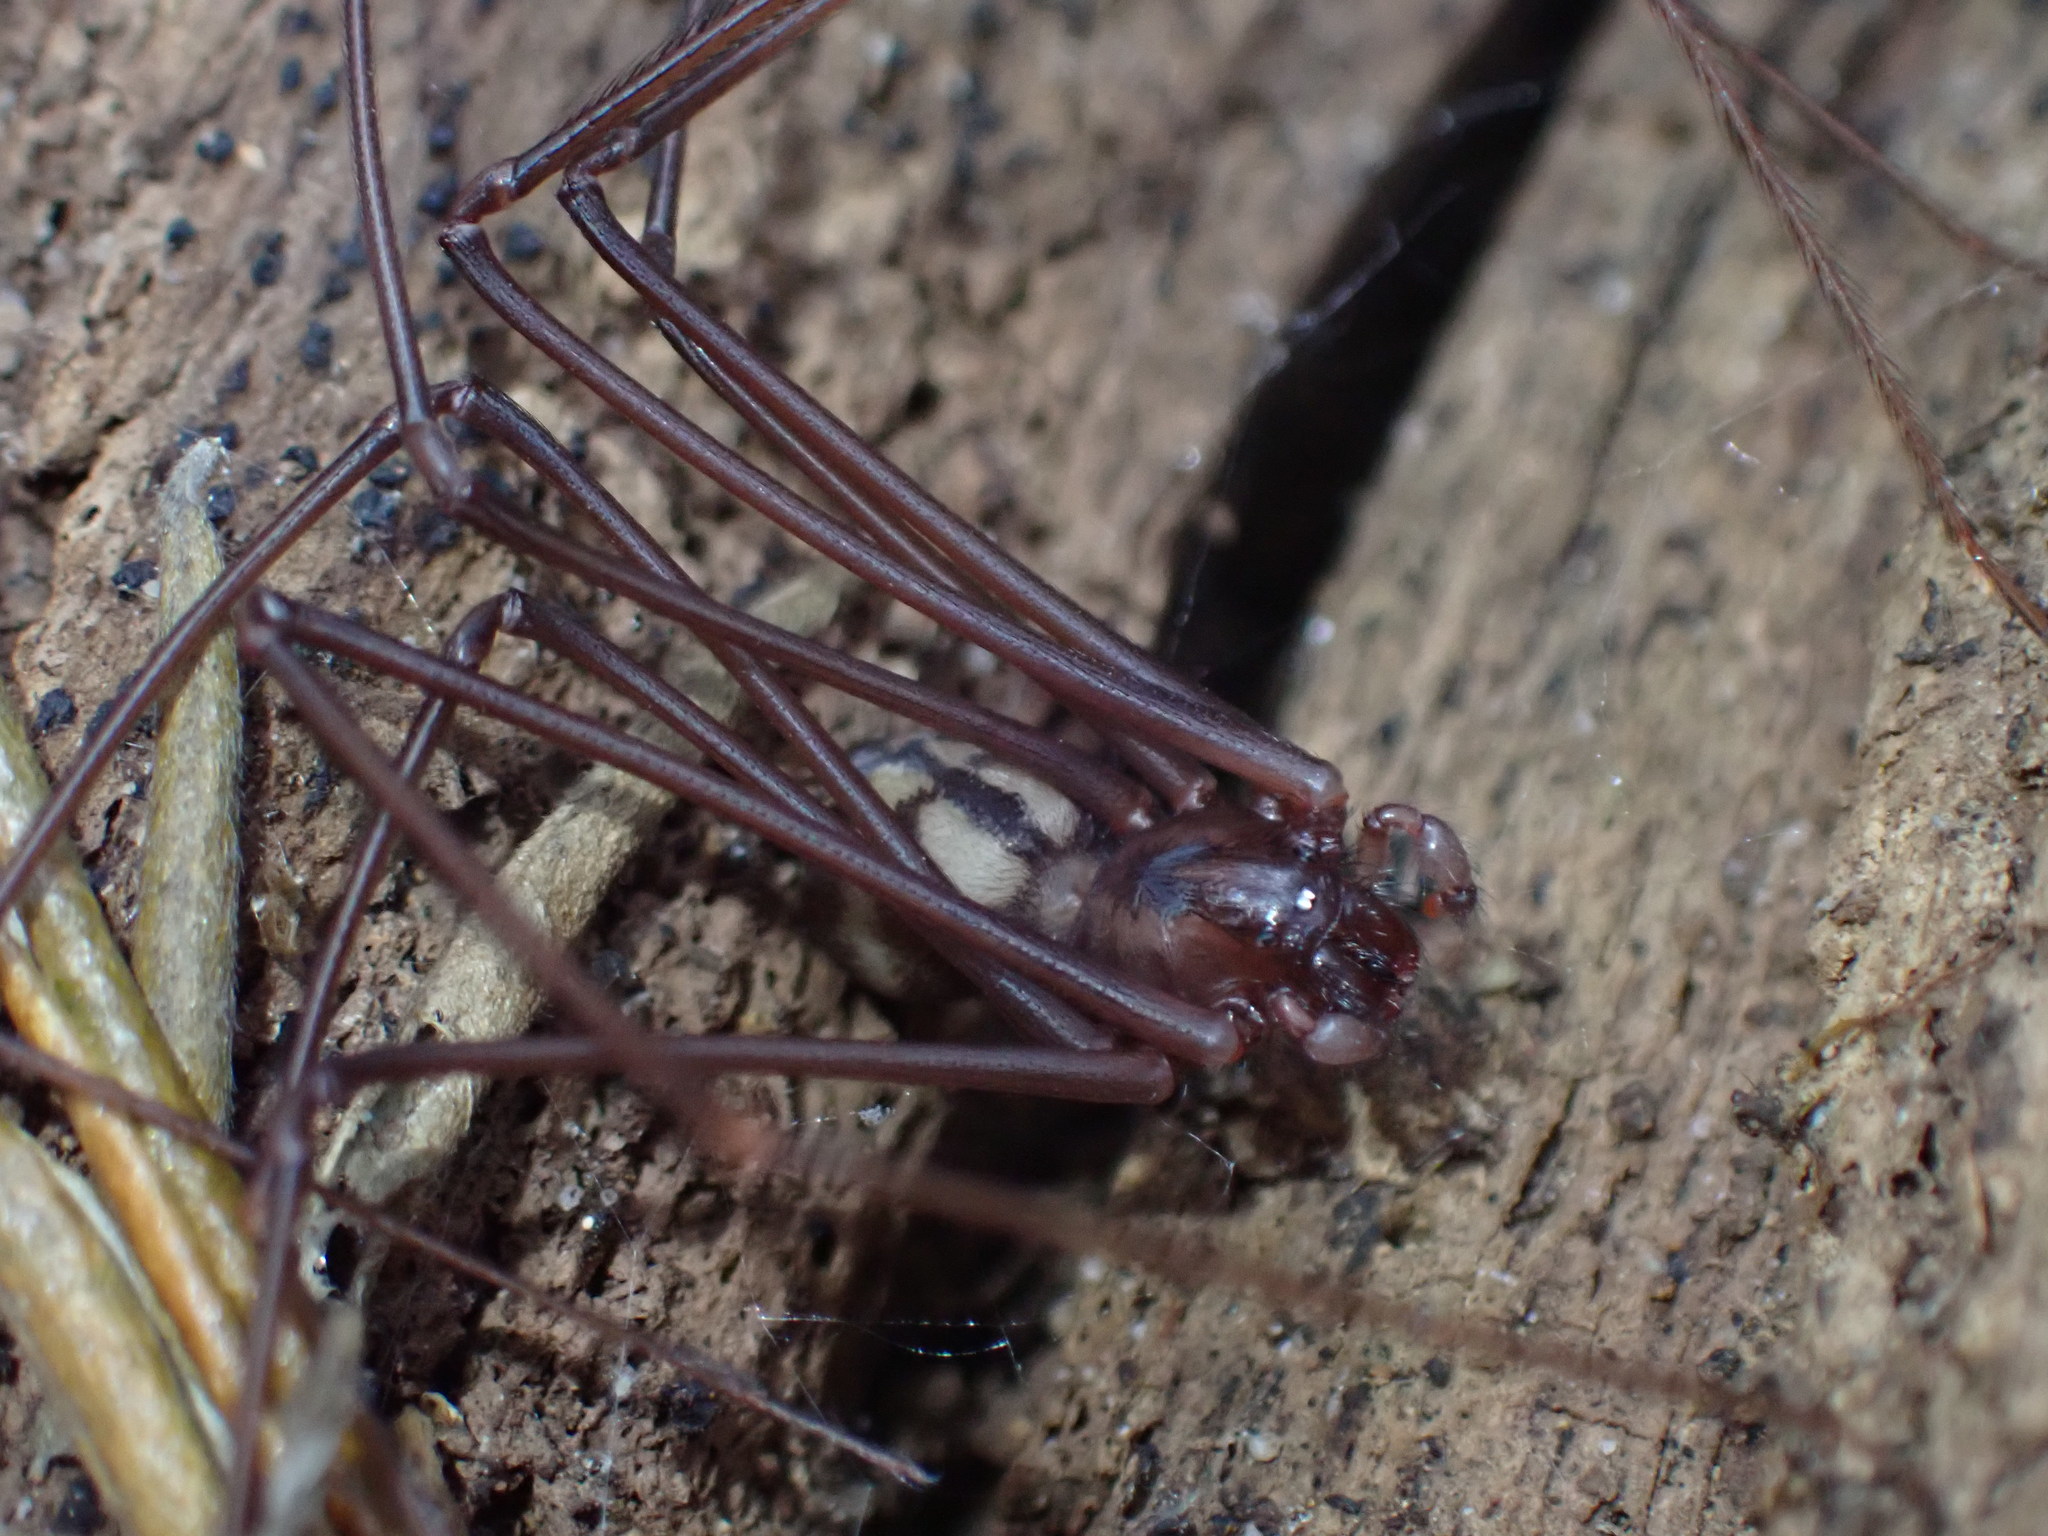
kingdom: Animalia
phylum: Arthropoda
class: Arachnida
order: Araneae
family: Drymusidae
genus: Izithunzi
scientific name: Izithunzi capense
